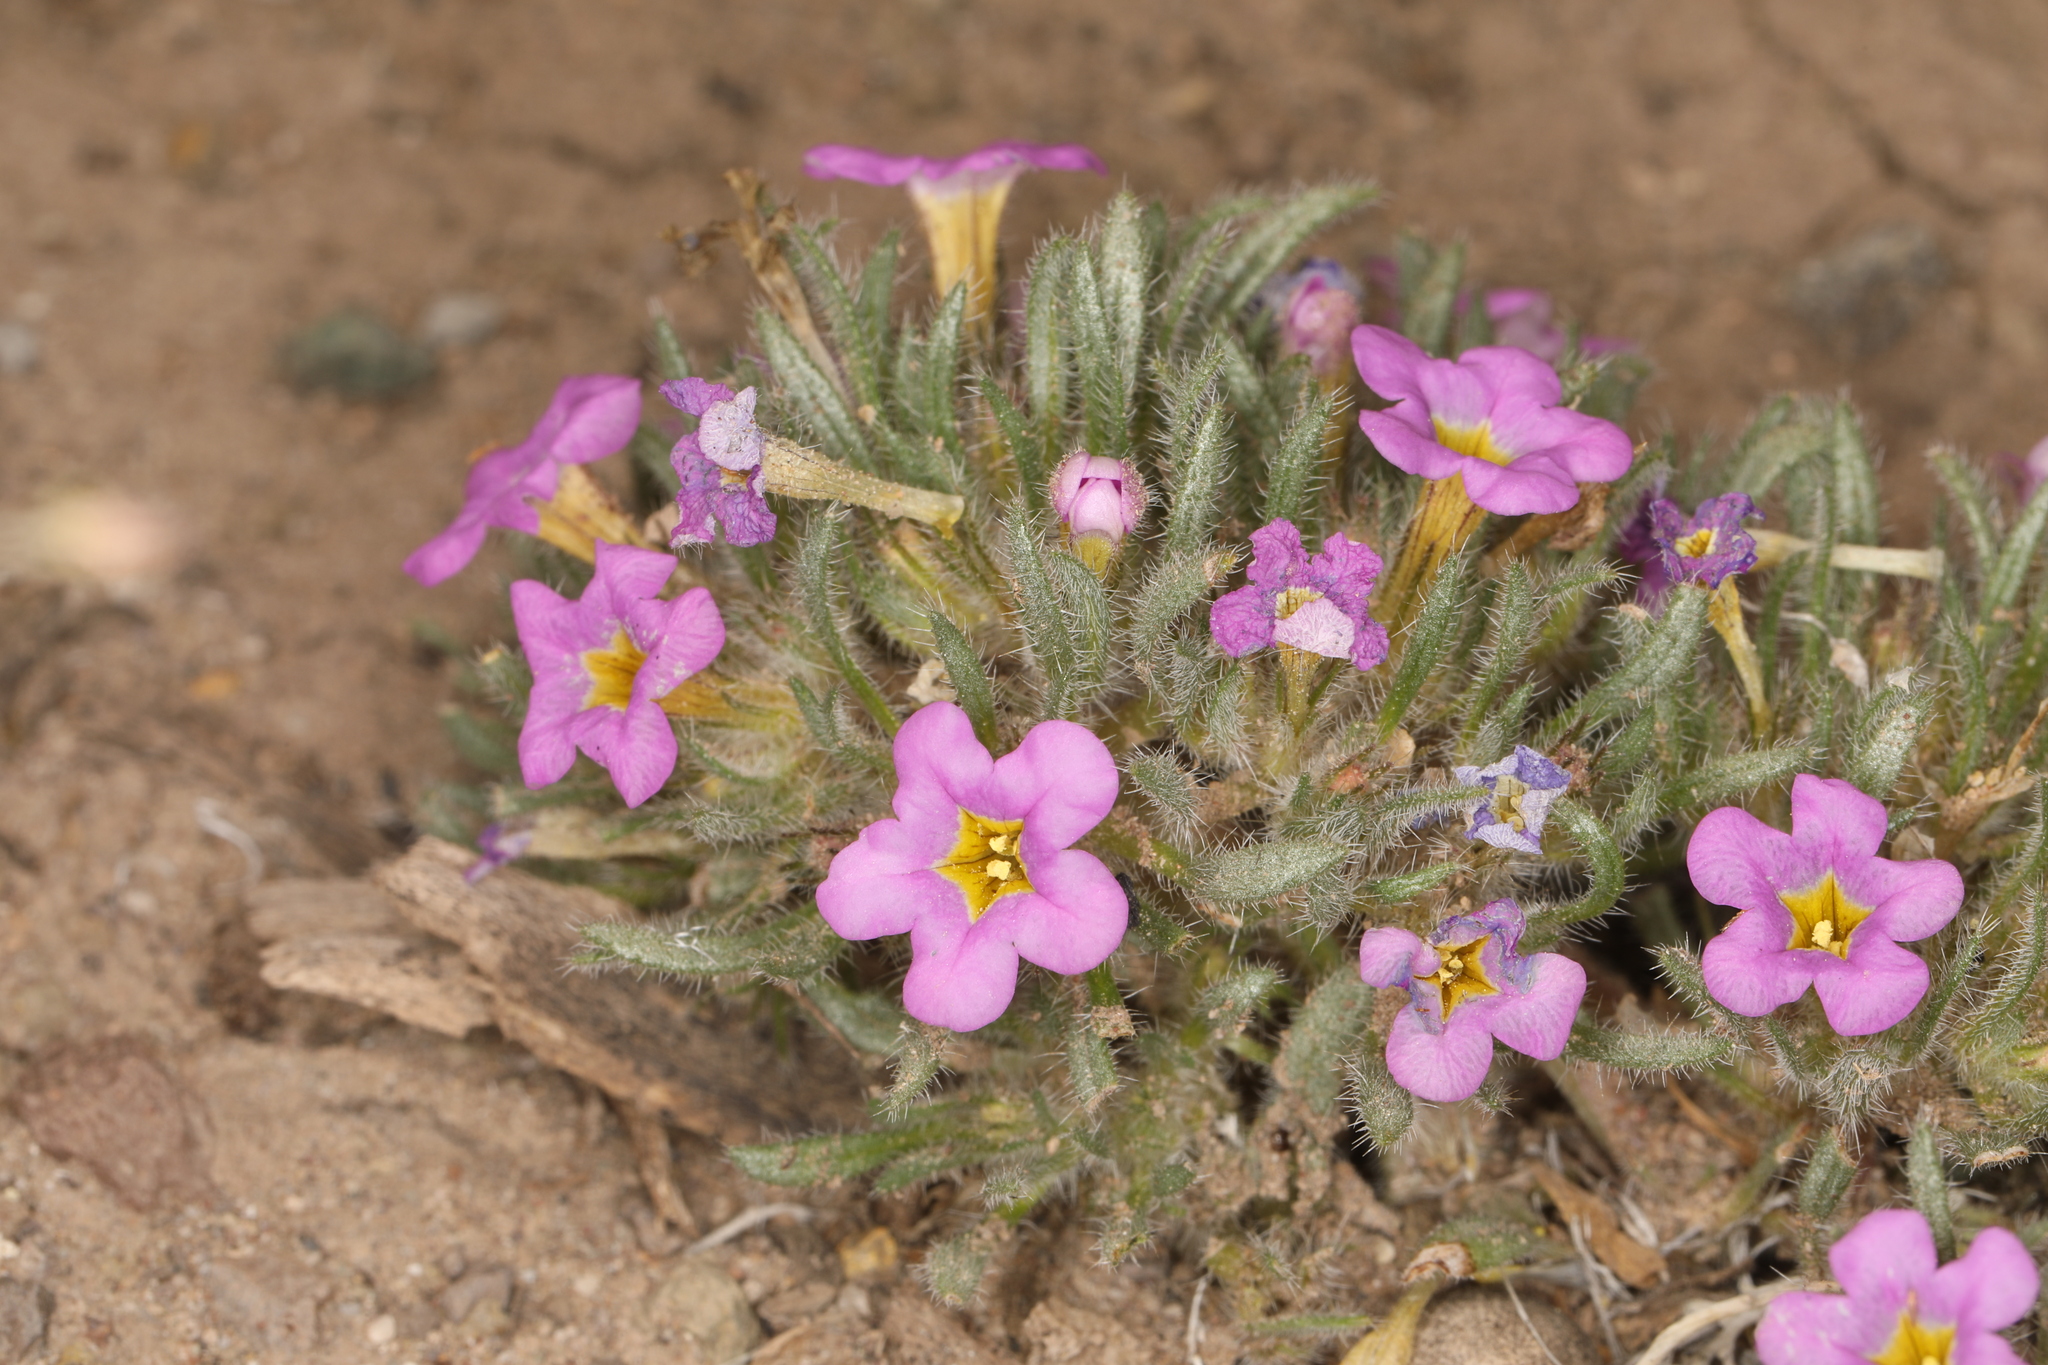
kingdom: Plantae
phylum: Tracheophyta
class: Magnoliopsida
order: Boraginales
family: Namaceae
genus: Nama
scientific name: Nama aretioides
